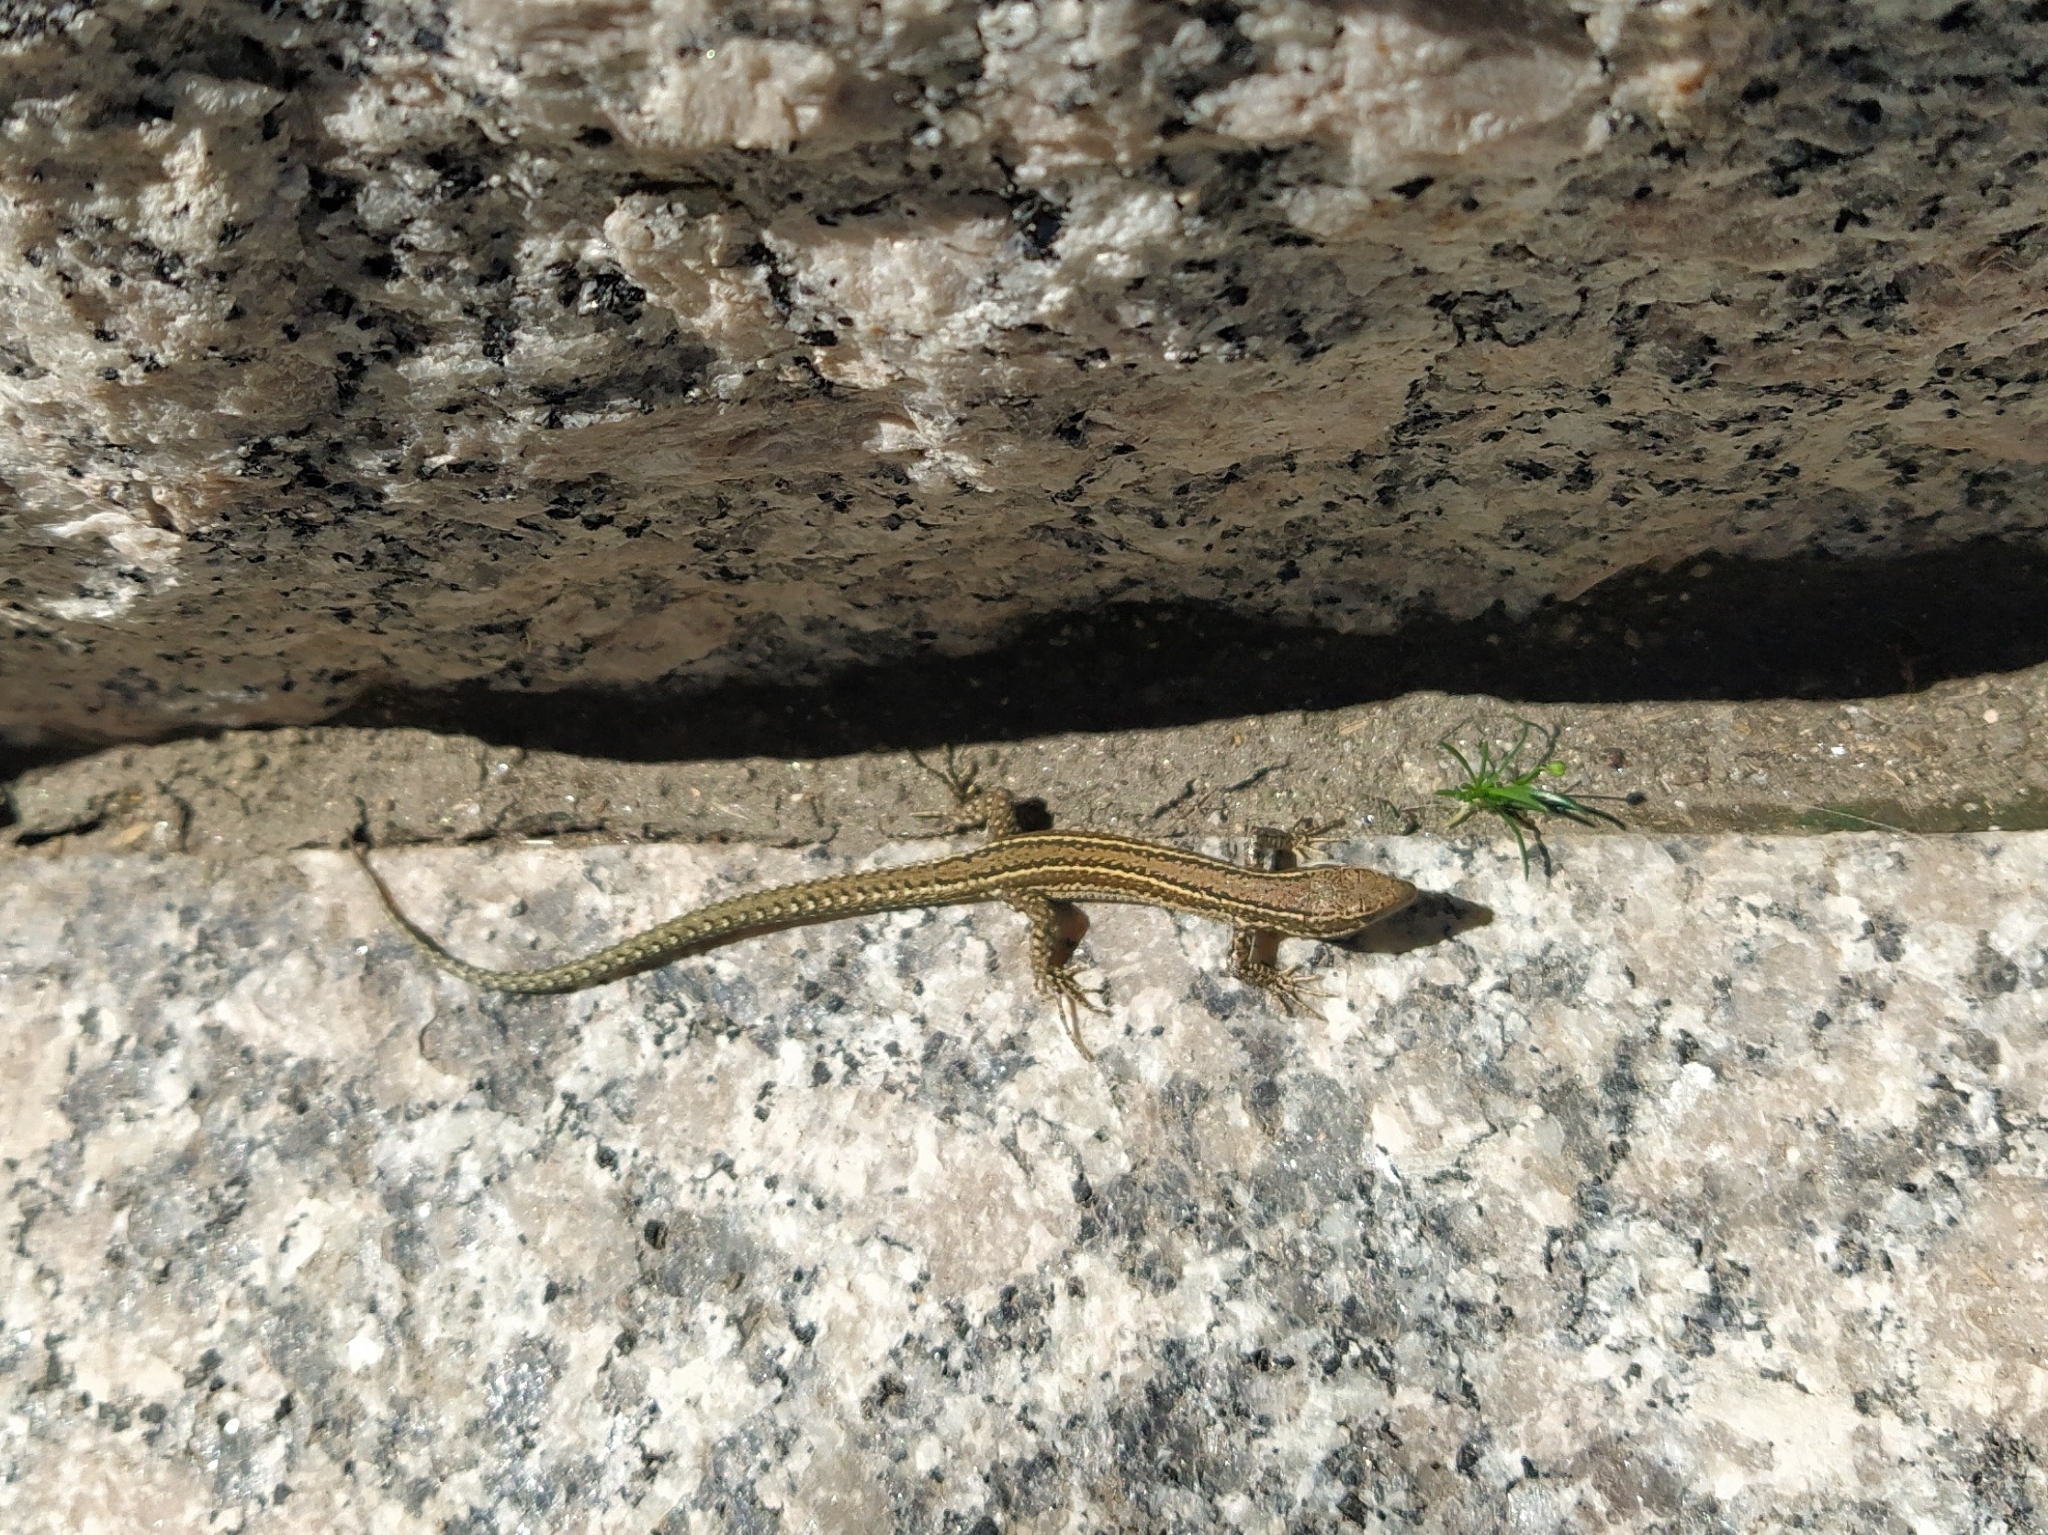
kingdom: Animalia
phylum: Chordata
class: Squamata
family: Lacertidae
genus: Podarcis
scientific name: Podarcis bocagei
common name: Bocage's wall lizard
